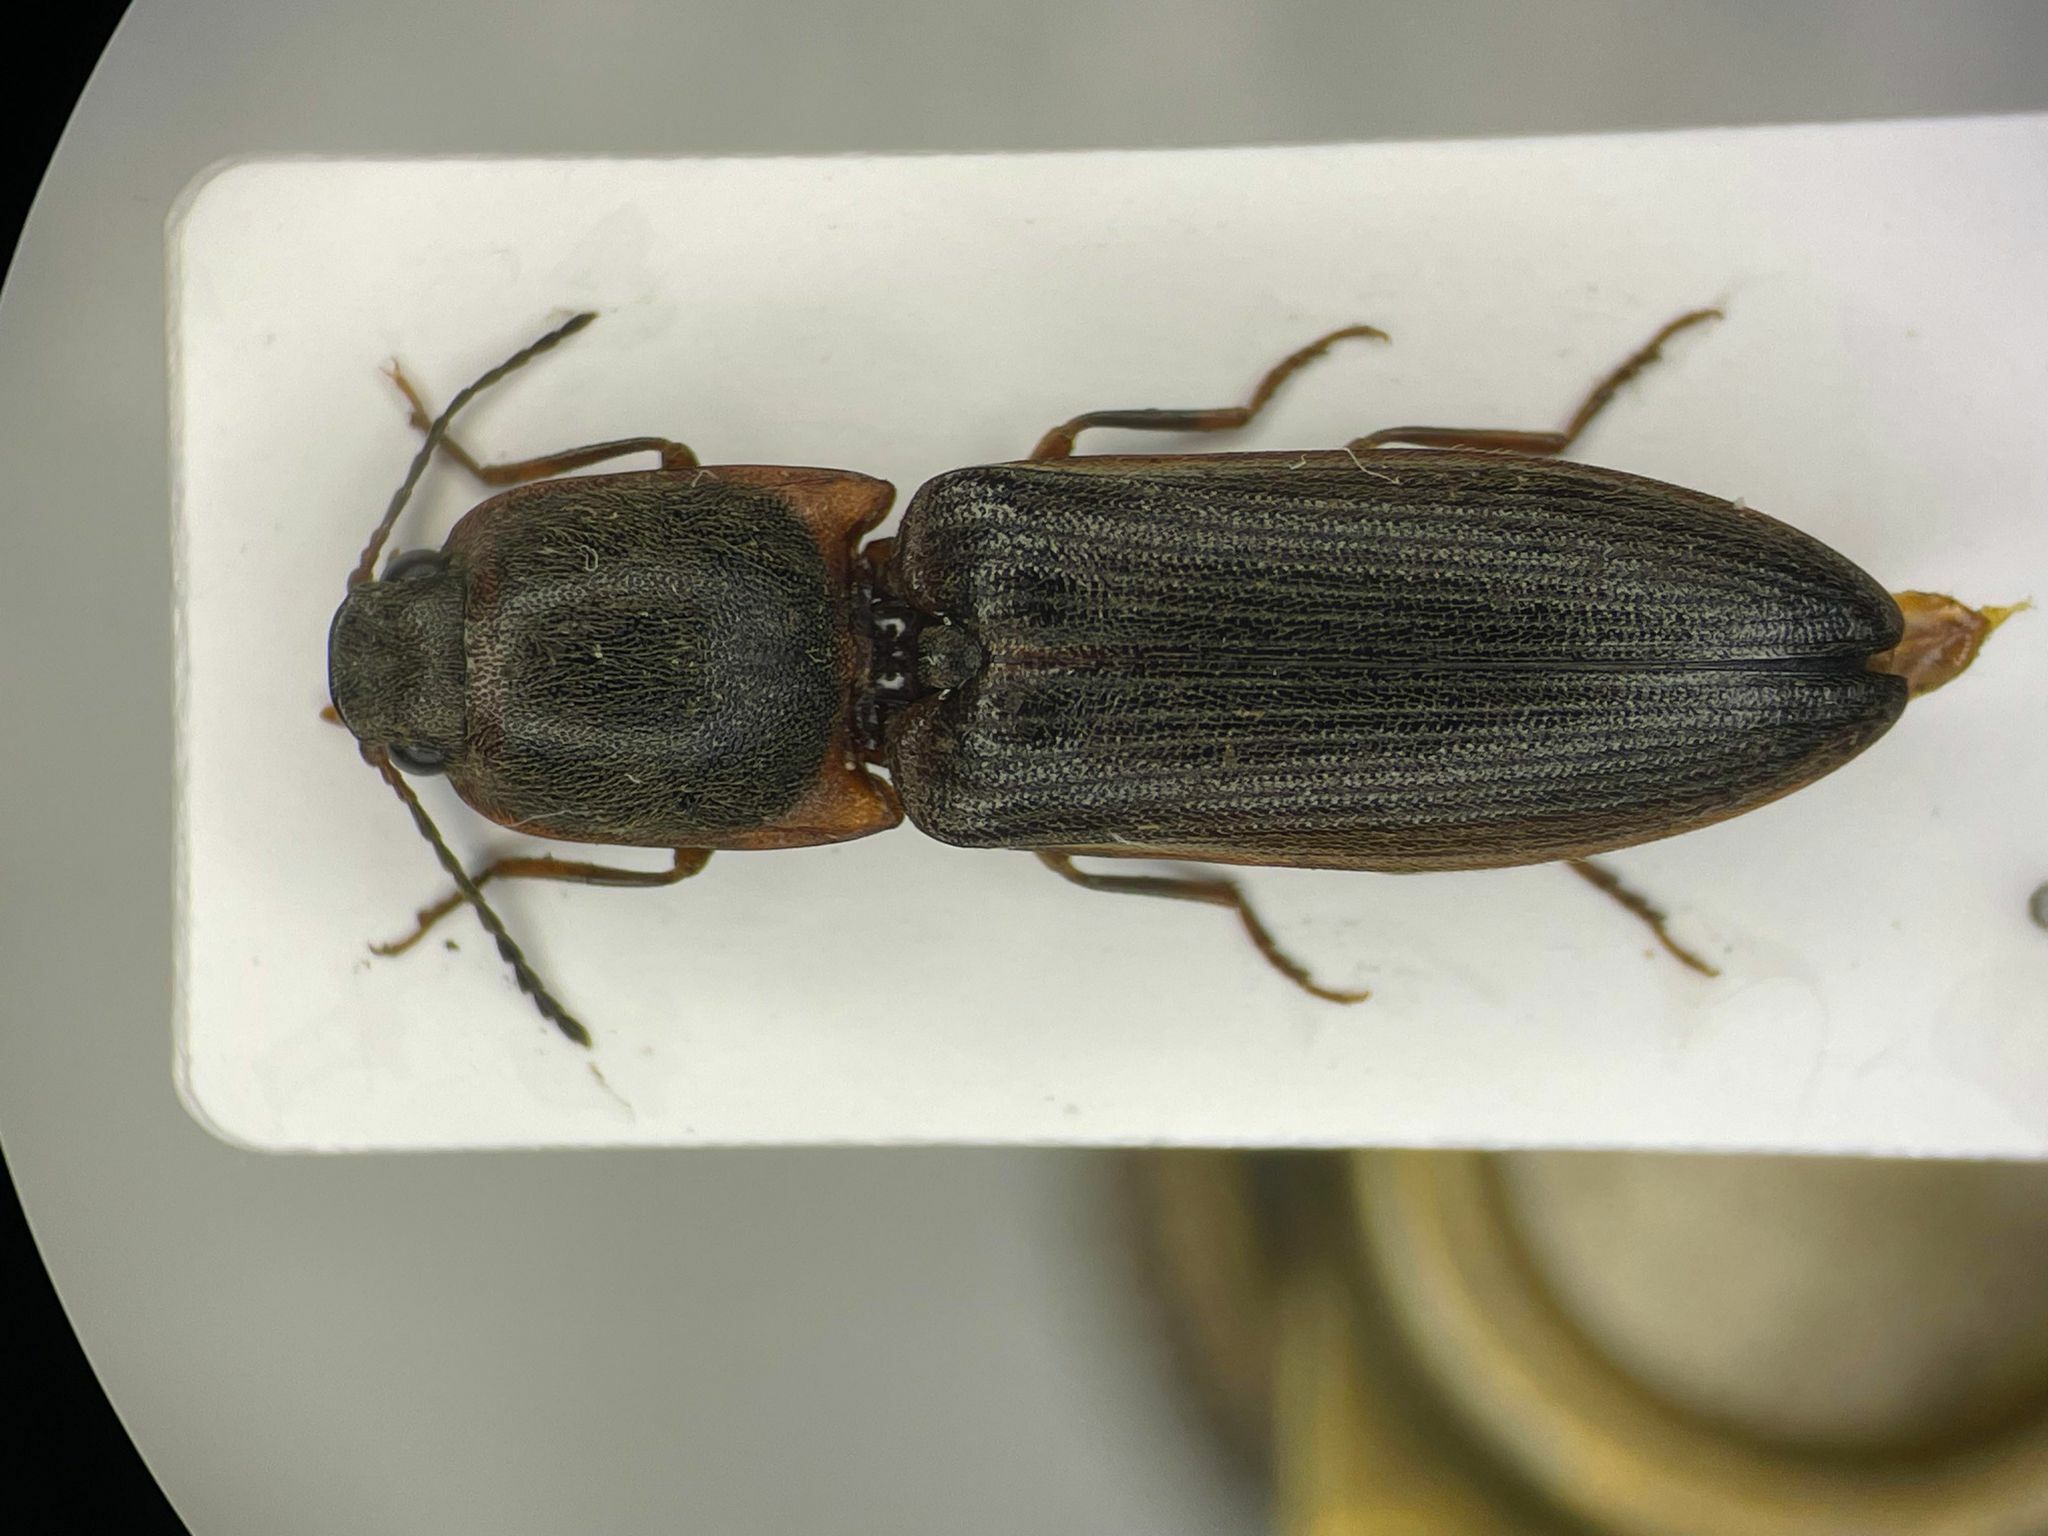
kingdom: Animalia
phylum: Arthropoda
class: Insecta
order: Coleoptera
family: Elateridae
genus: Athous
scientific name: Athous posticus
